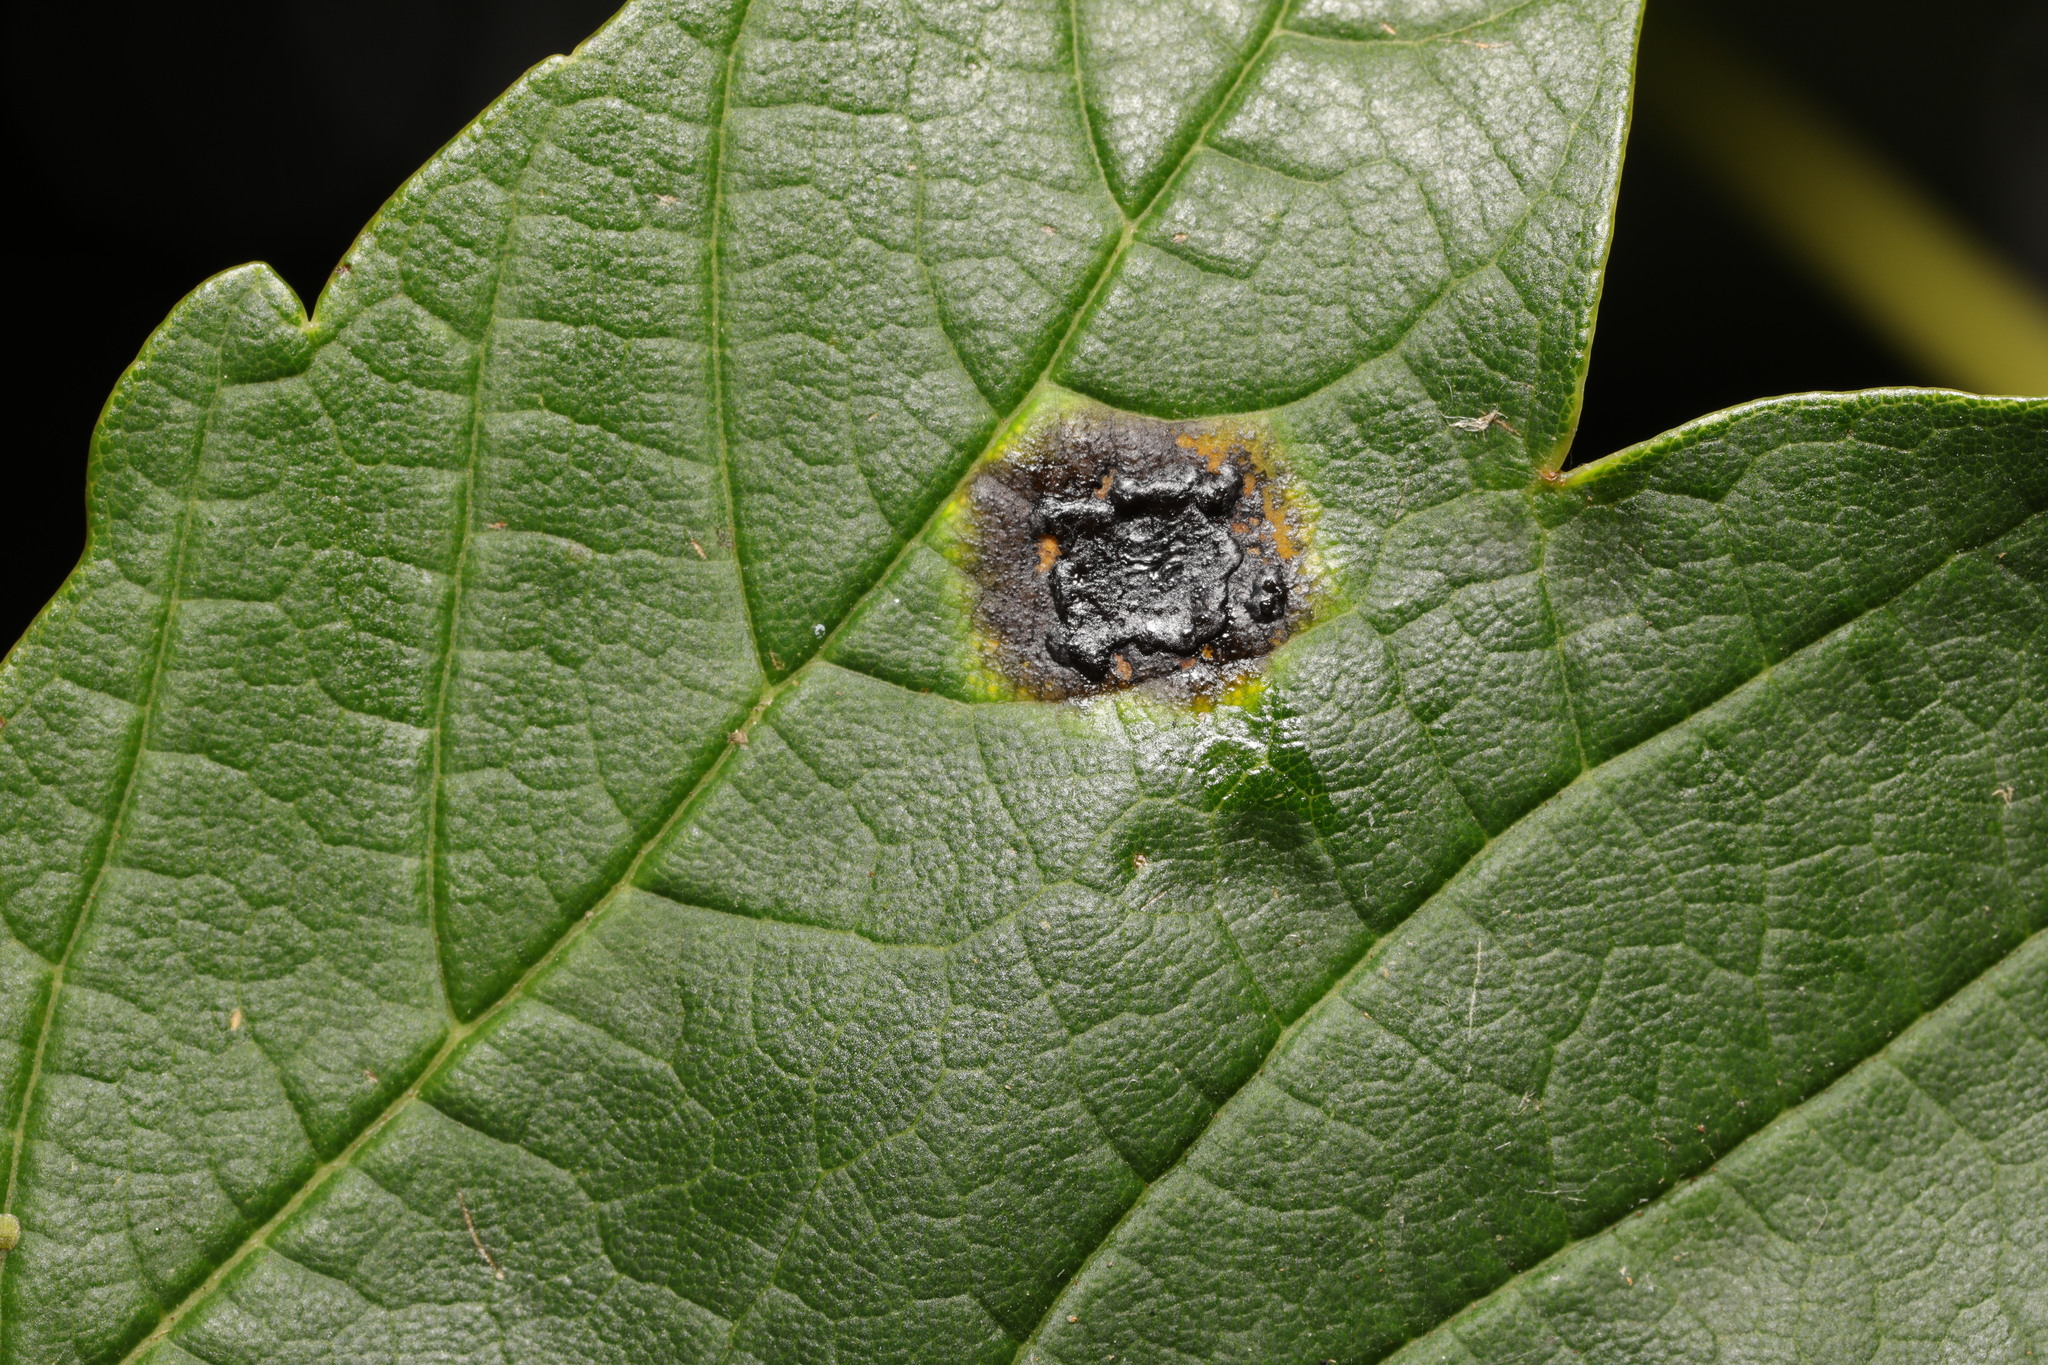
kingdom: Fungi
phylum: Ascomycota
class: Leotiomycetes
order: Rhytismatales
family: Rhytismataceae
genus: Rhytisma
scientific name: Rhytisma acerinum
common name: European tar spot
